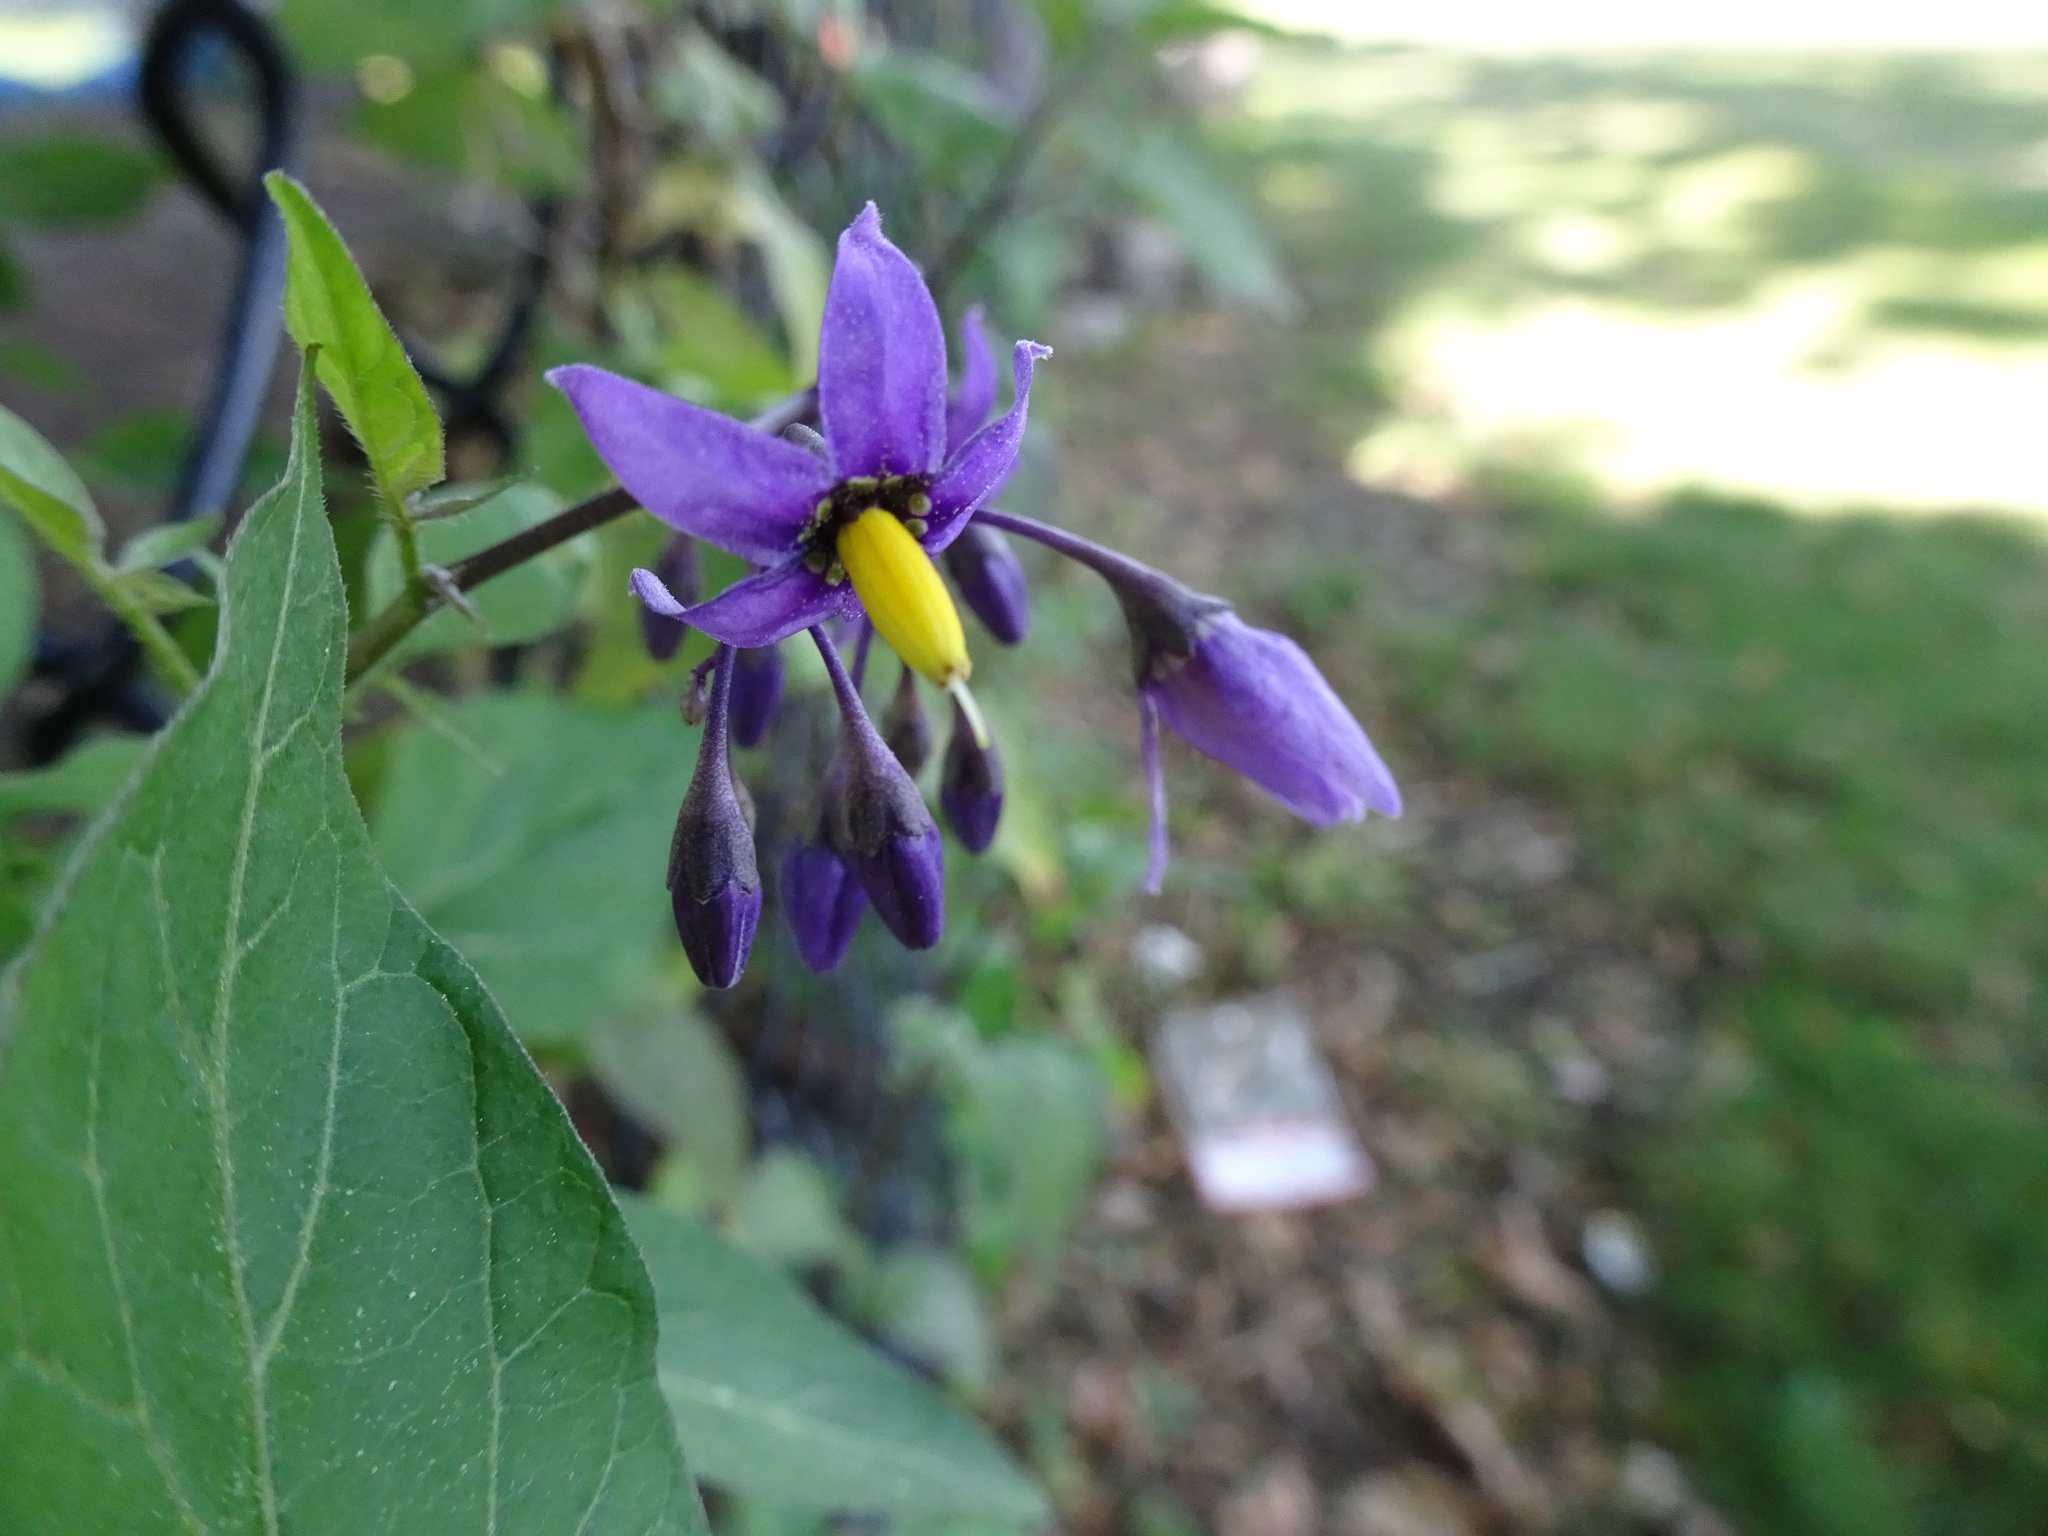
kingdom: Plantae
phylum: Tracheophyta
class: Magnoliopsida
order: Solanales
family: Solanaceae
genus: Solanum
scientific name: Solanum dulcamara
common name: Climbing nightshade
